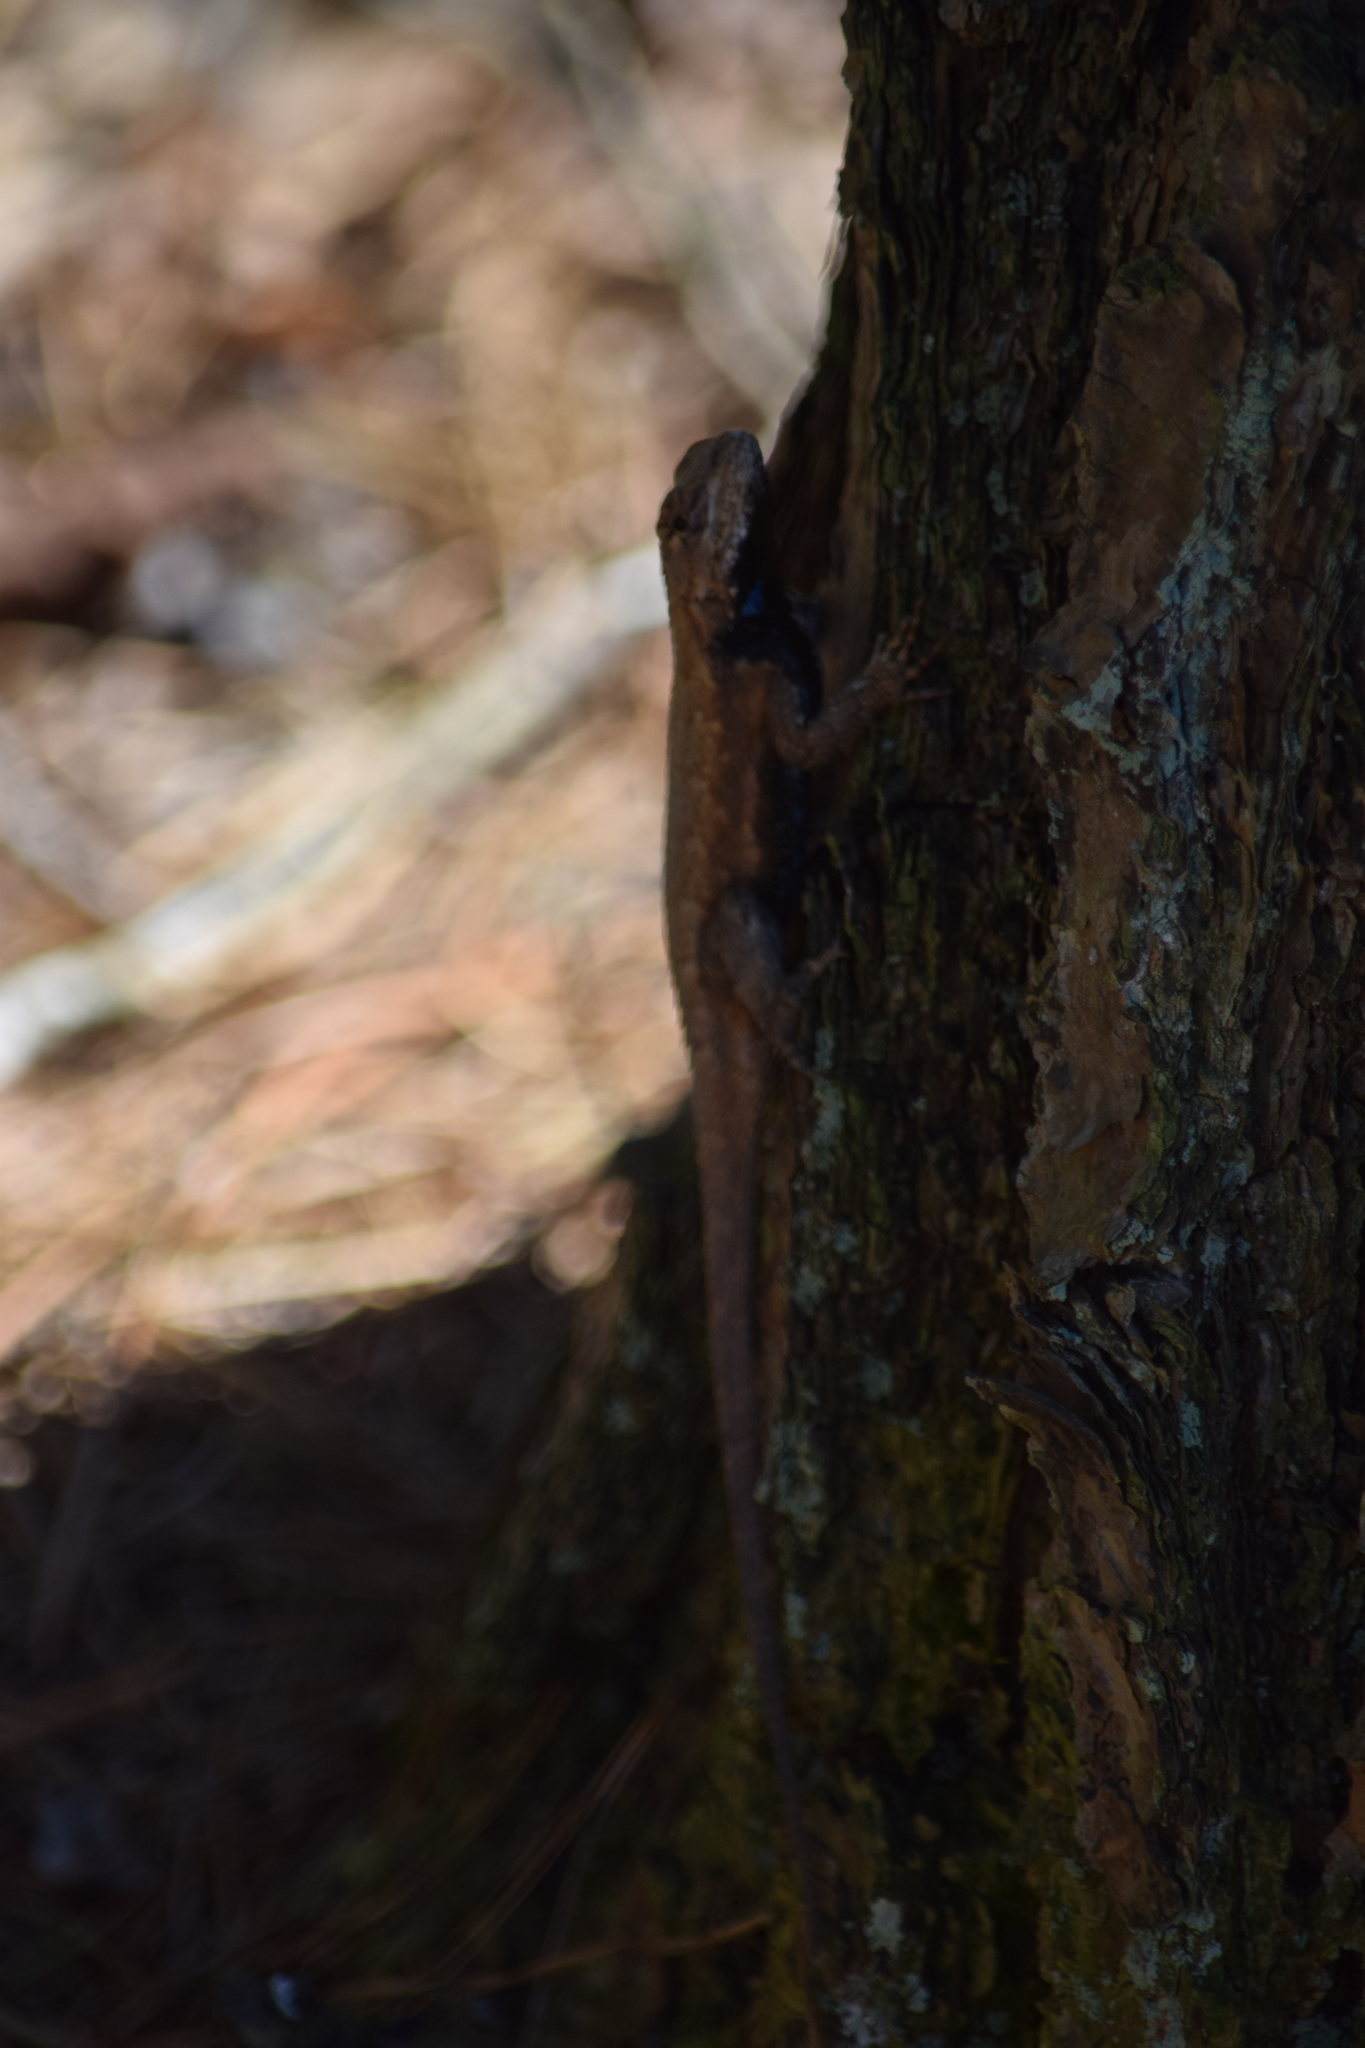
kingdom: Animalia
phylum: Chordata
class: Squamata
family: Phrynosomatidae
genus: Sceloporus
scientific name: Sceloporus undulatus
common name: Eastern fence lizard
